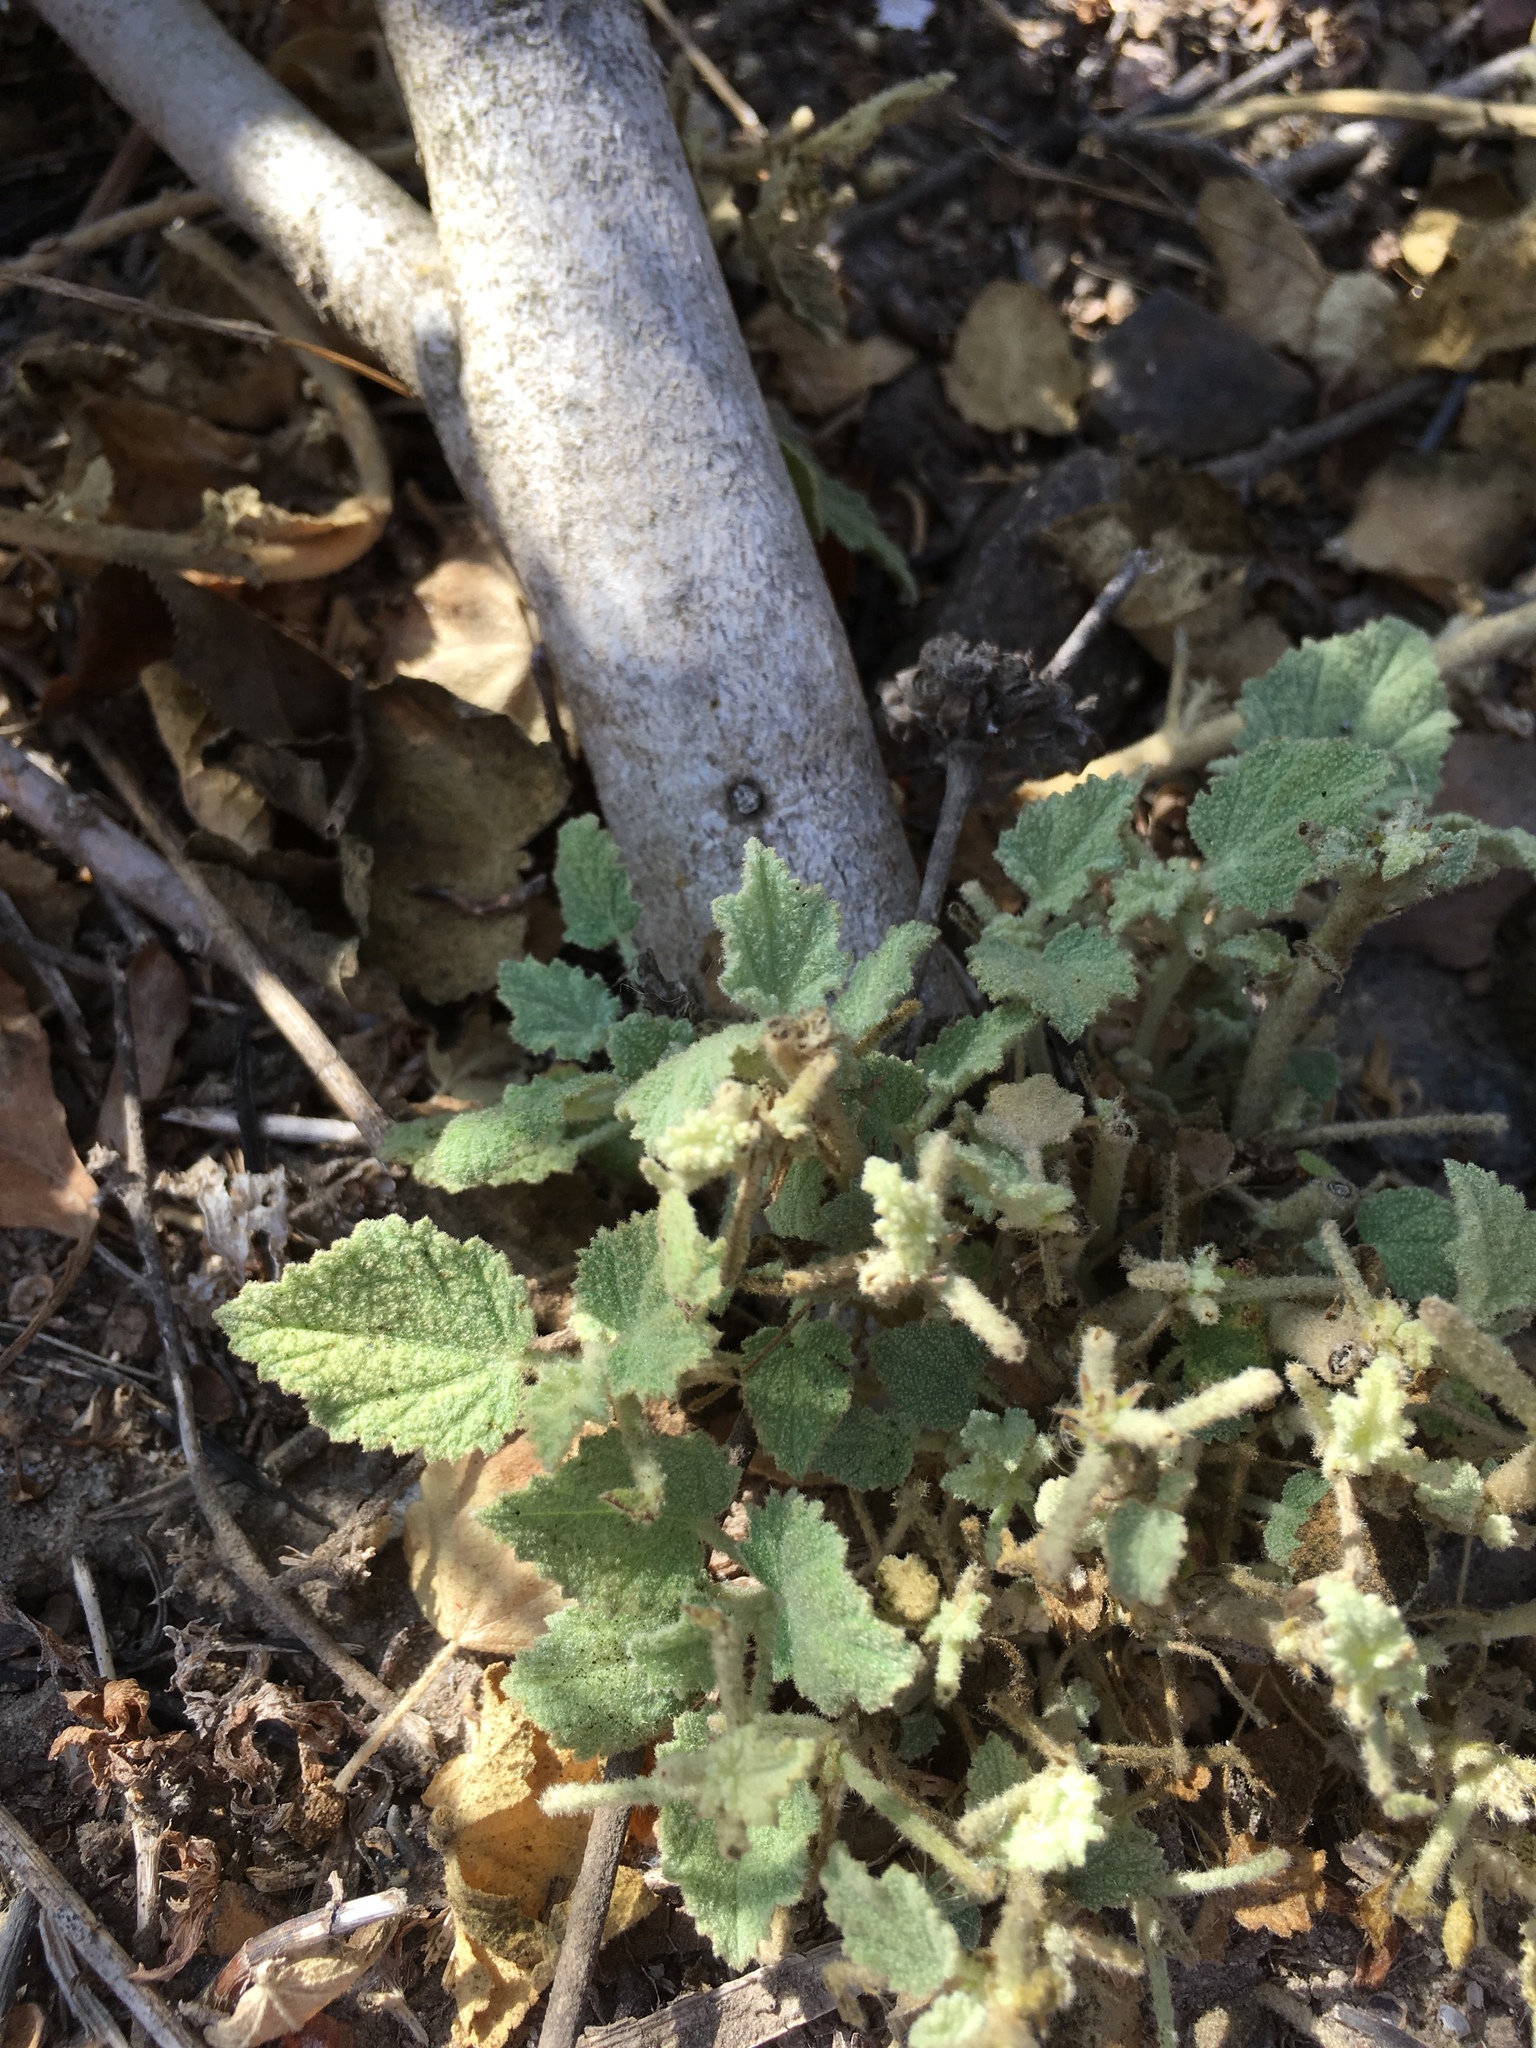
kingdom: Plantae
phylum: Tracheophyta
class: Magnoliopsida
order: Malvales
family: Malvaceae
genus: Malacothamnus
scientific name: Malacothamnus fasciculatus
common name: Sant cruz island bush-mallow
